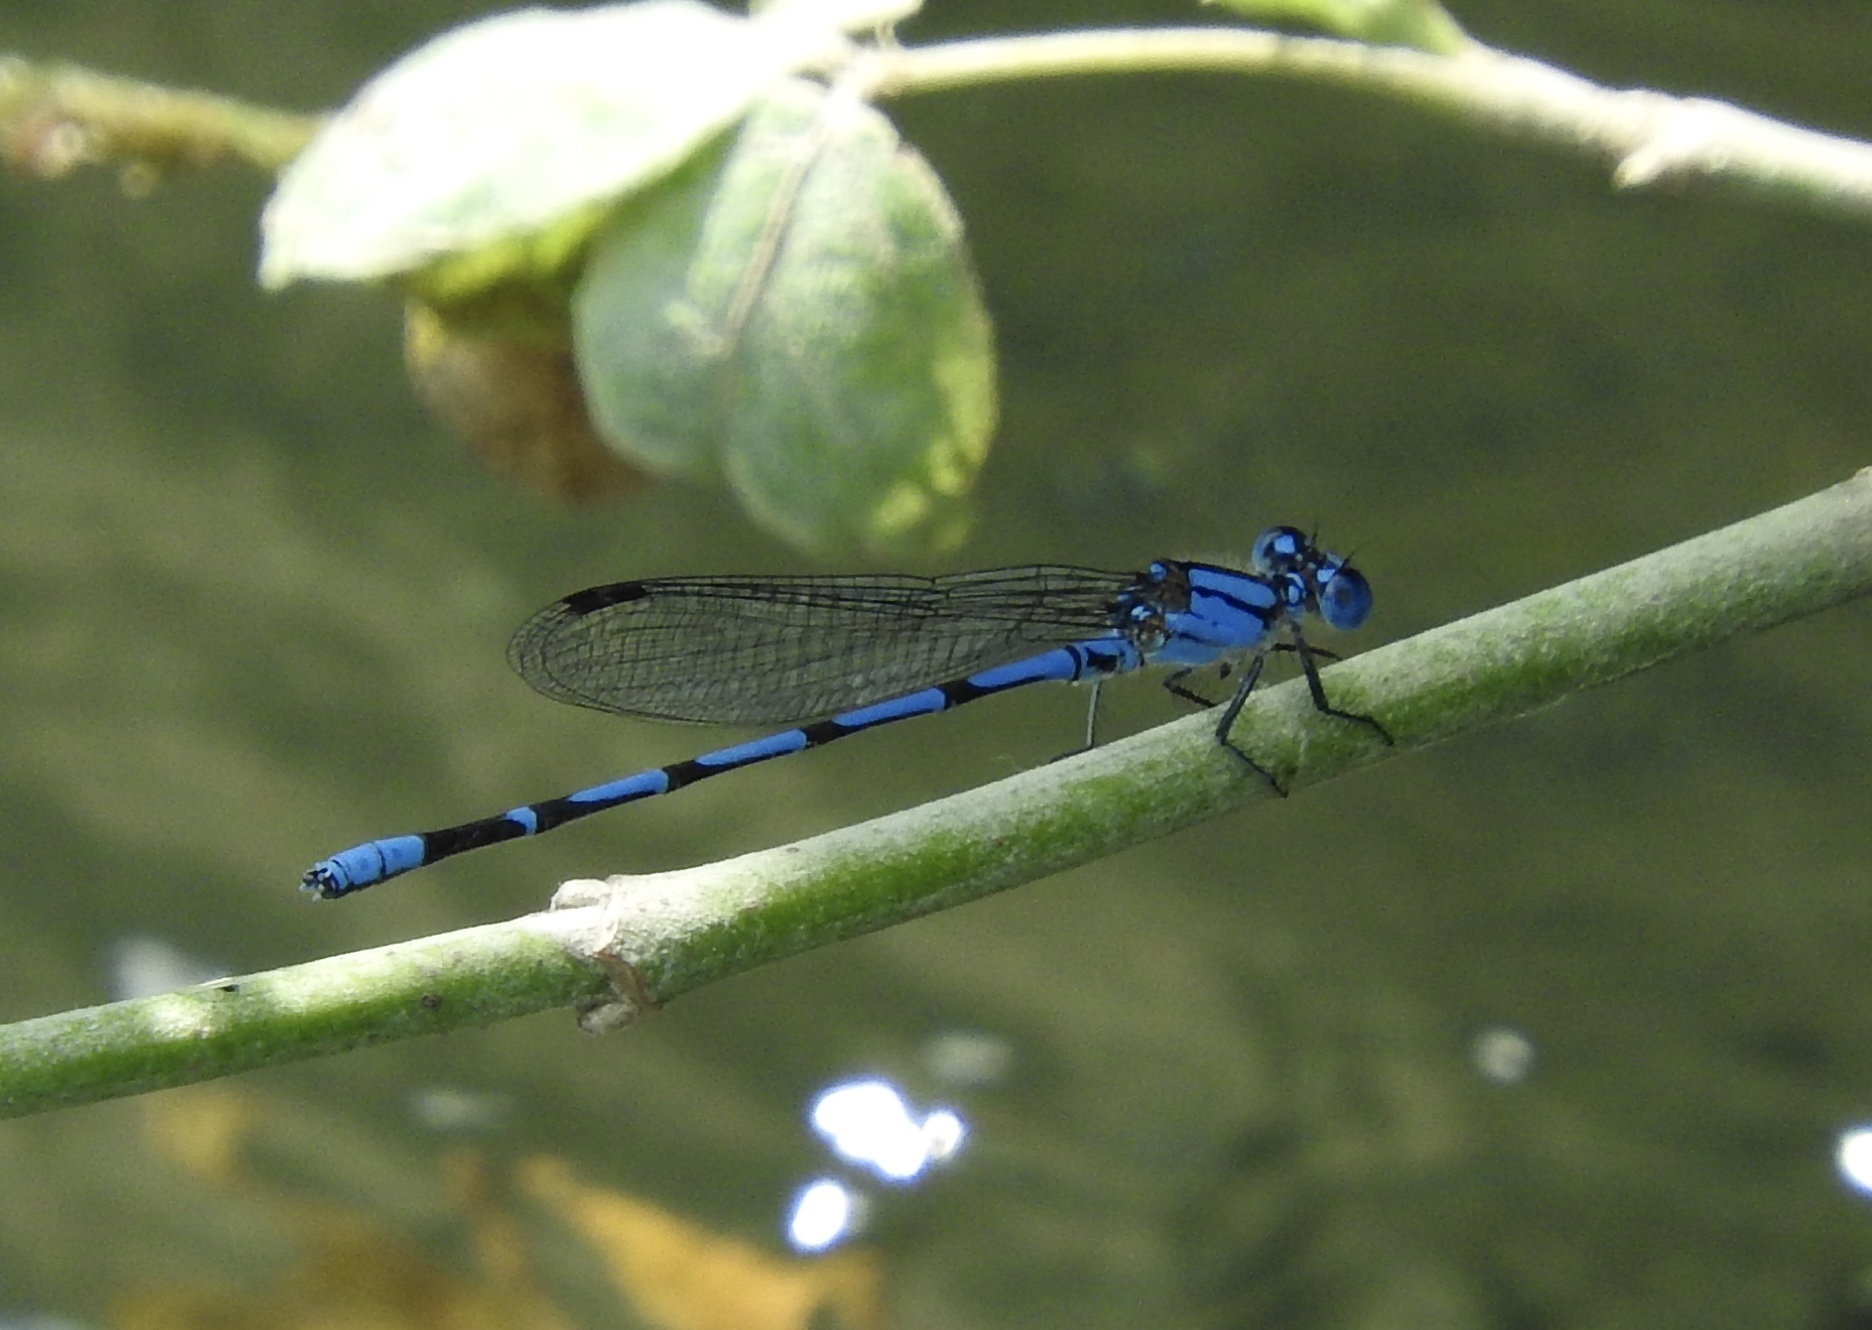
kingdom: Animalia
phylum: Arthropoda
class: Insecta
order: Odonata
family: Coenagrionidae
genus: Argia
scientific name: Argia barretti
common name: Comanche dancer
